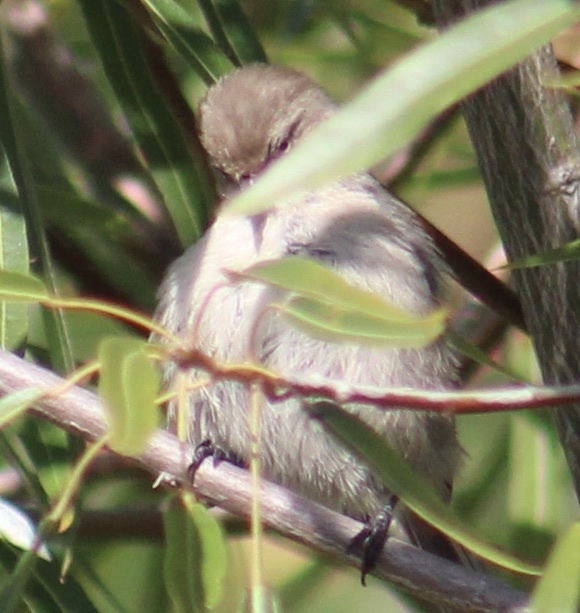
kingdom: Animalia
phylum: Chordata
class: Aves
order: Passeriformes
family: Aegithalidae
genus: Psaltriparus
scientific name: Psaltriparus minimus
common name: American bushtit
